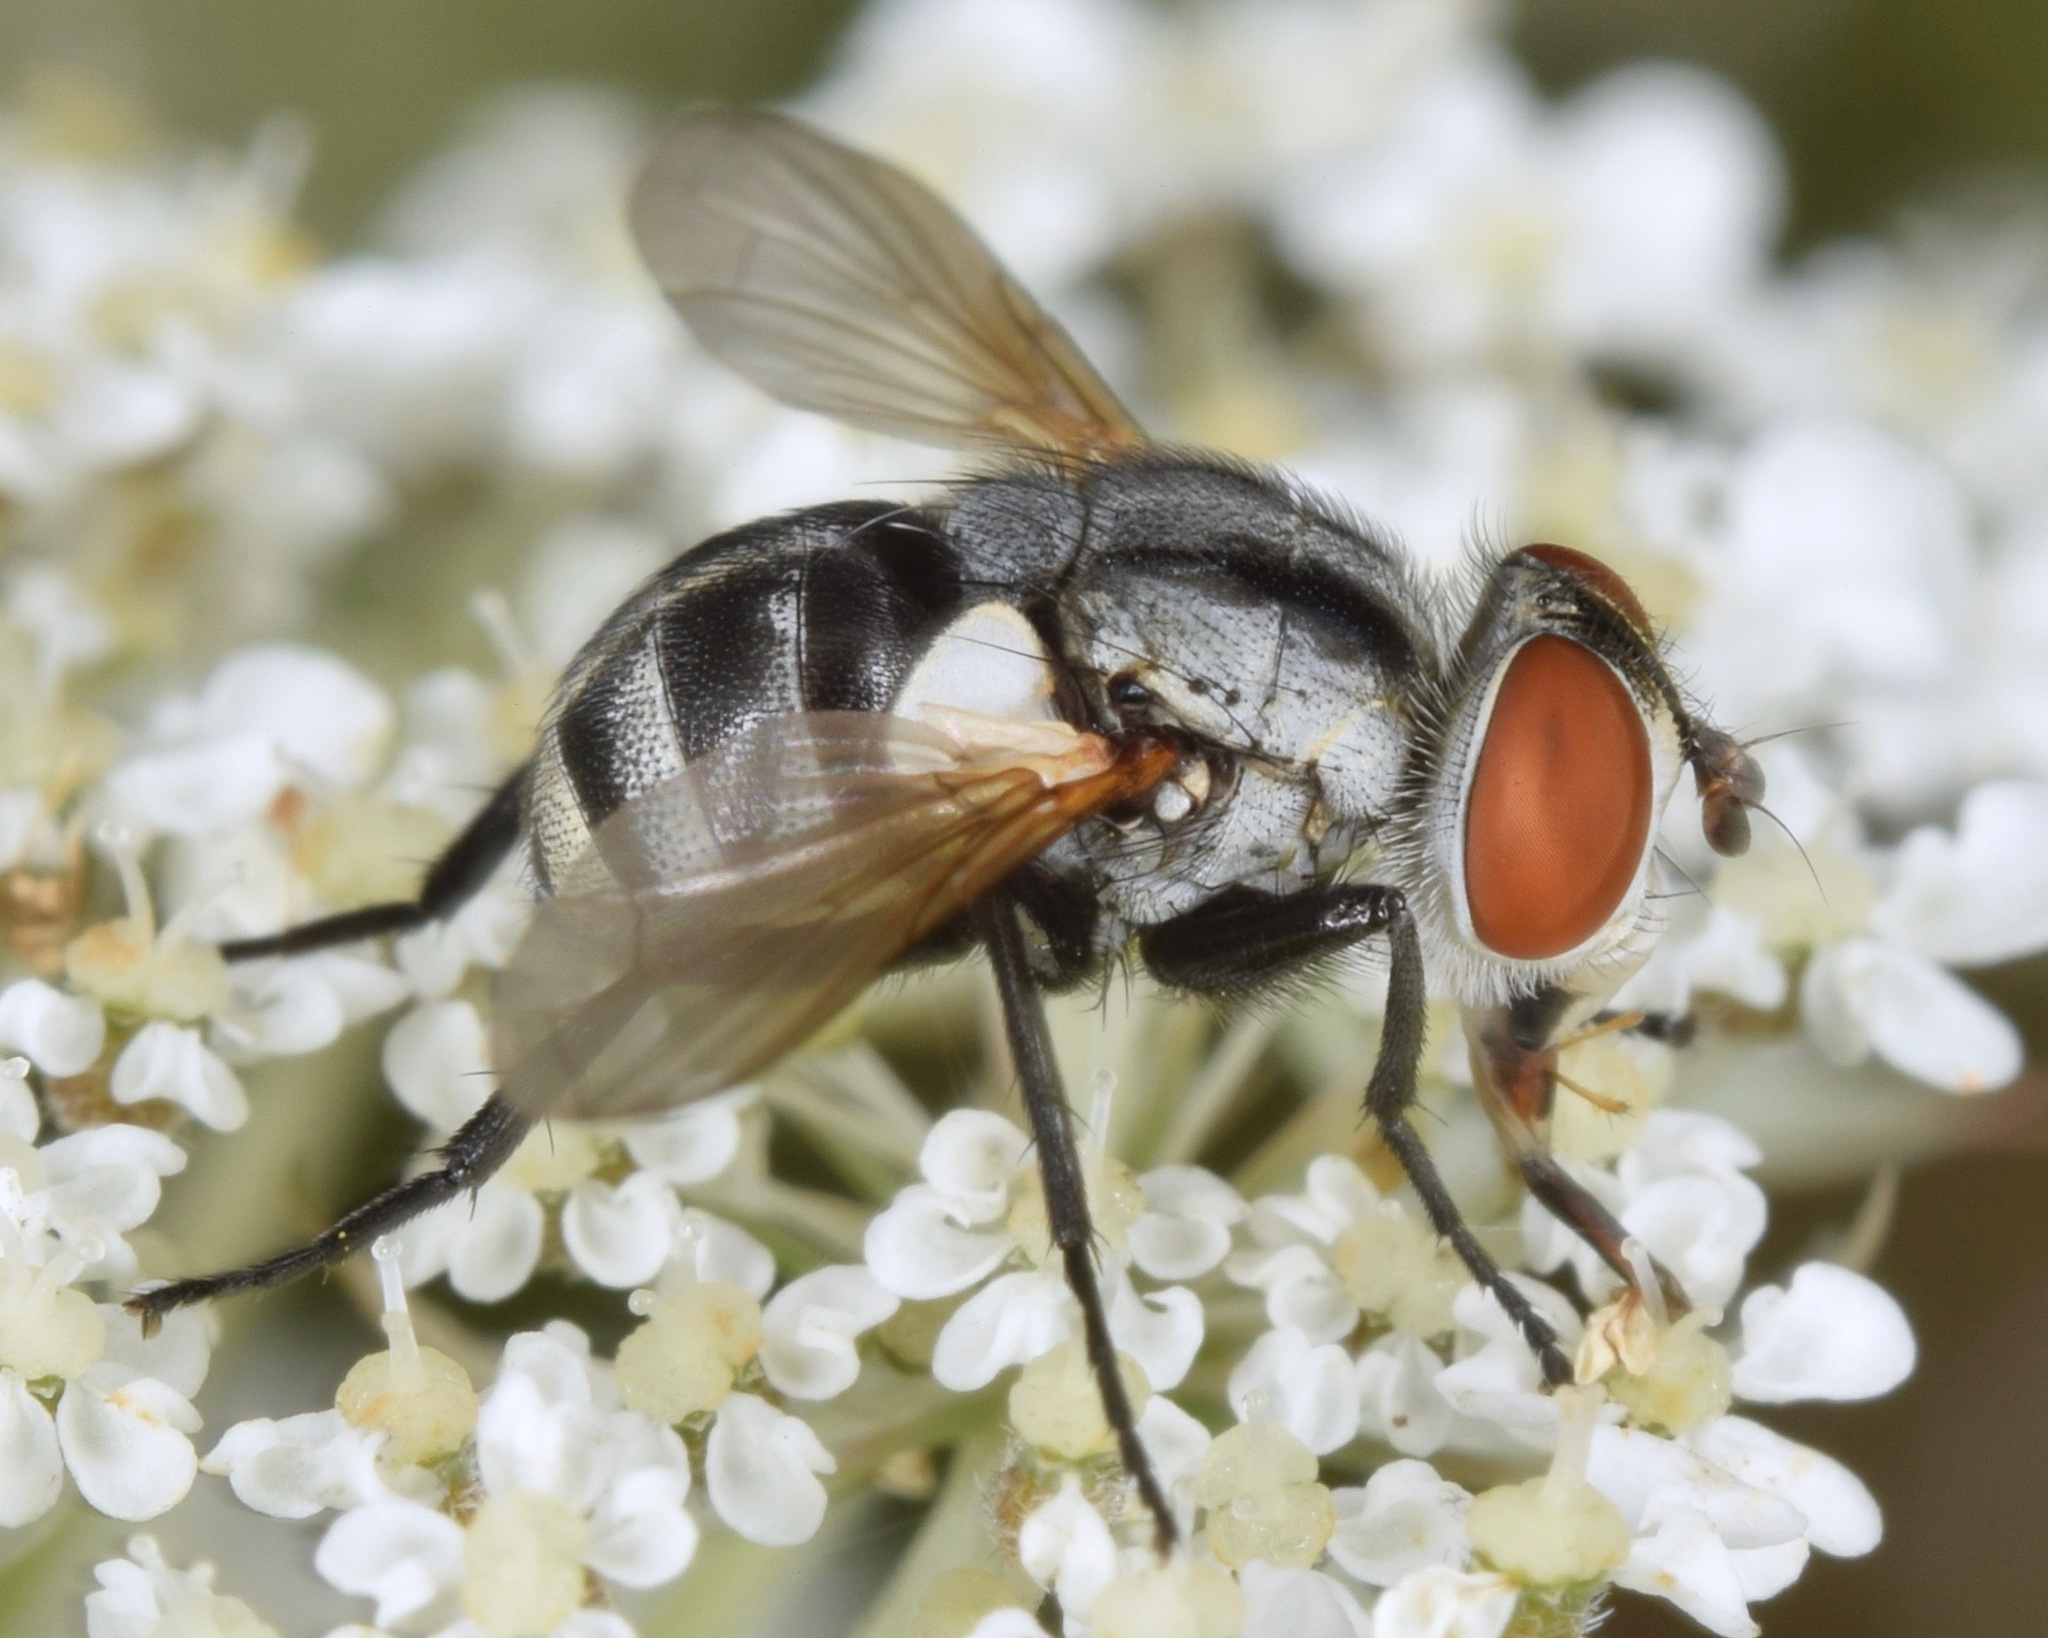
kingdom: Animalia
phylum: Arthropoda
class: Insecta
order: Diptera
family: Tachinidae
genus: Gymnoclytia
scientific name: Gymnoclytia occidua
